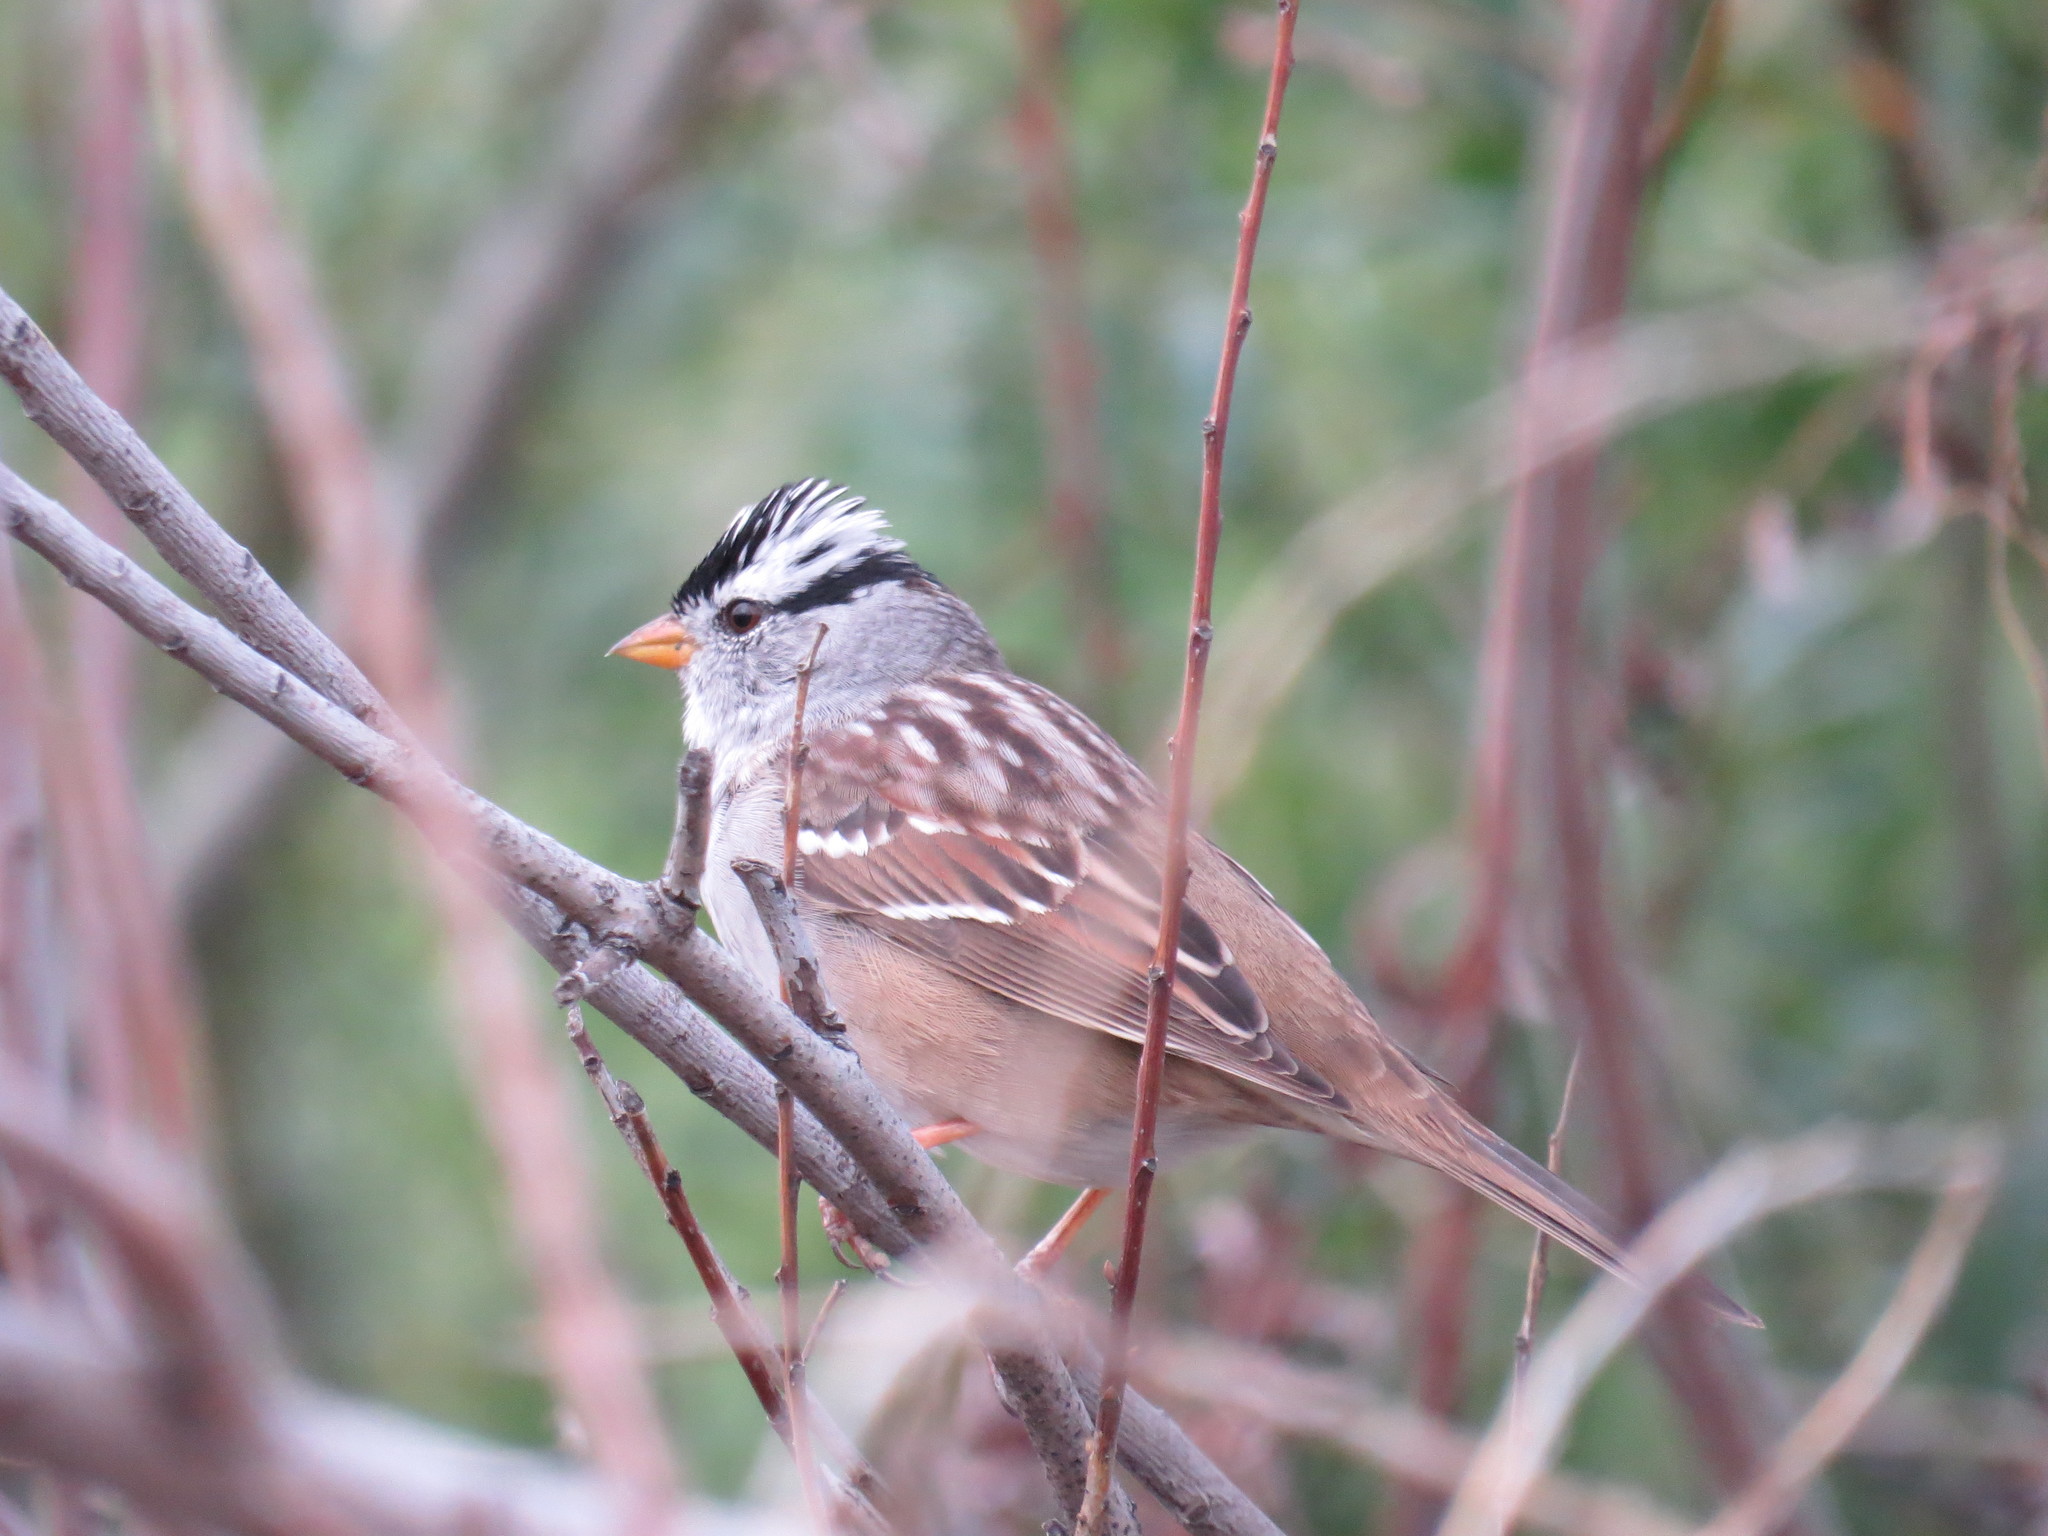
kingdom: Animalia
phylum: Chordata
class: Aves
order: Passeriformes
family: Passerellidae
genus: Zonotrichia
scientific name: Zonotrichia leucophrys
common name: White-crowned sparrow
